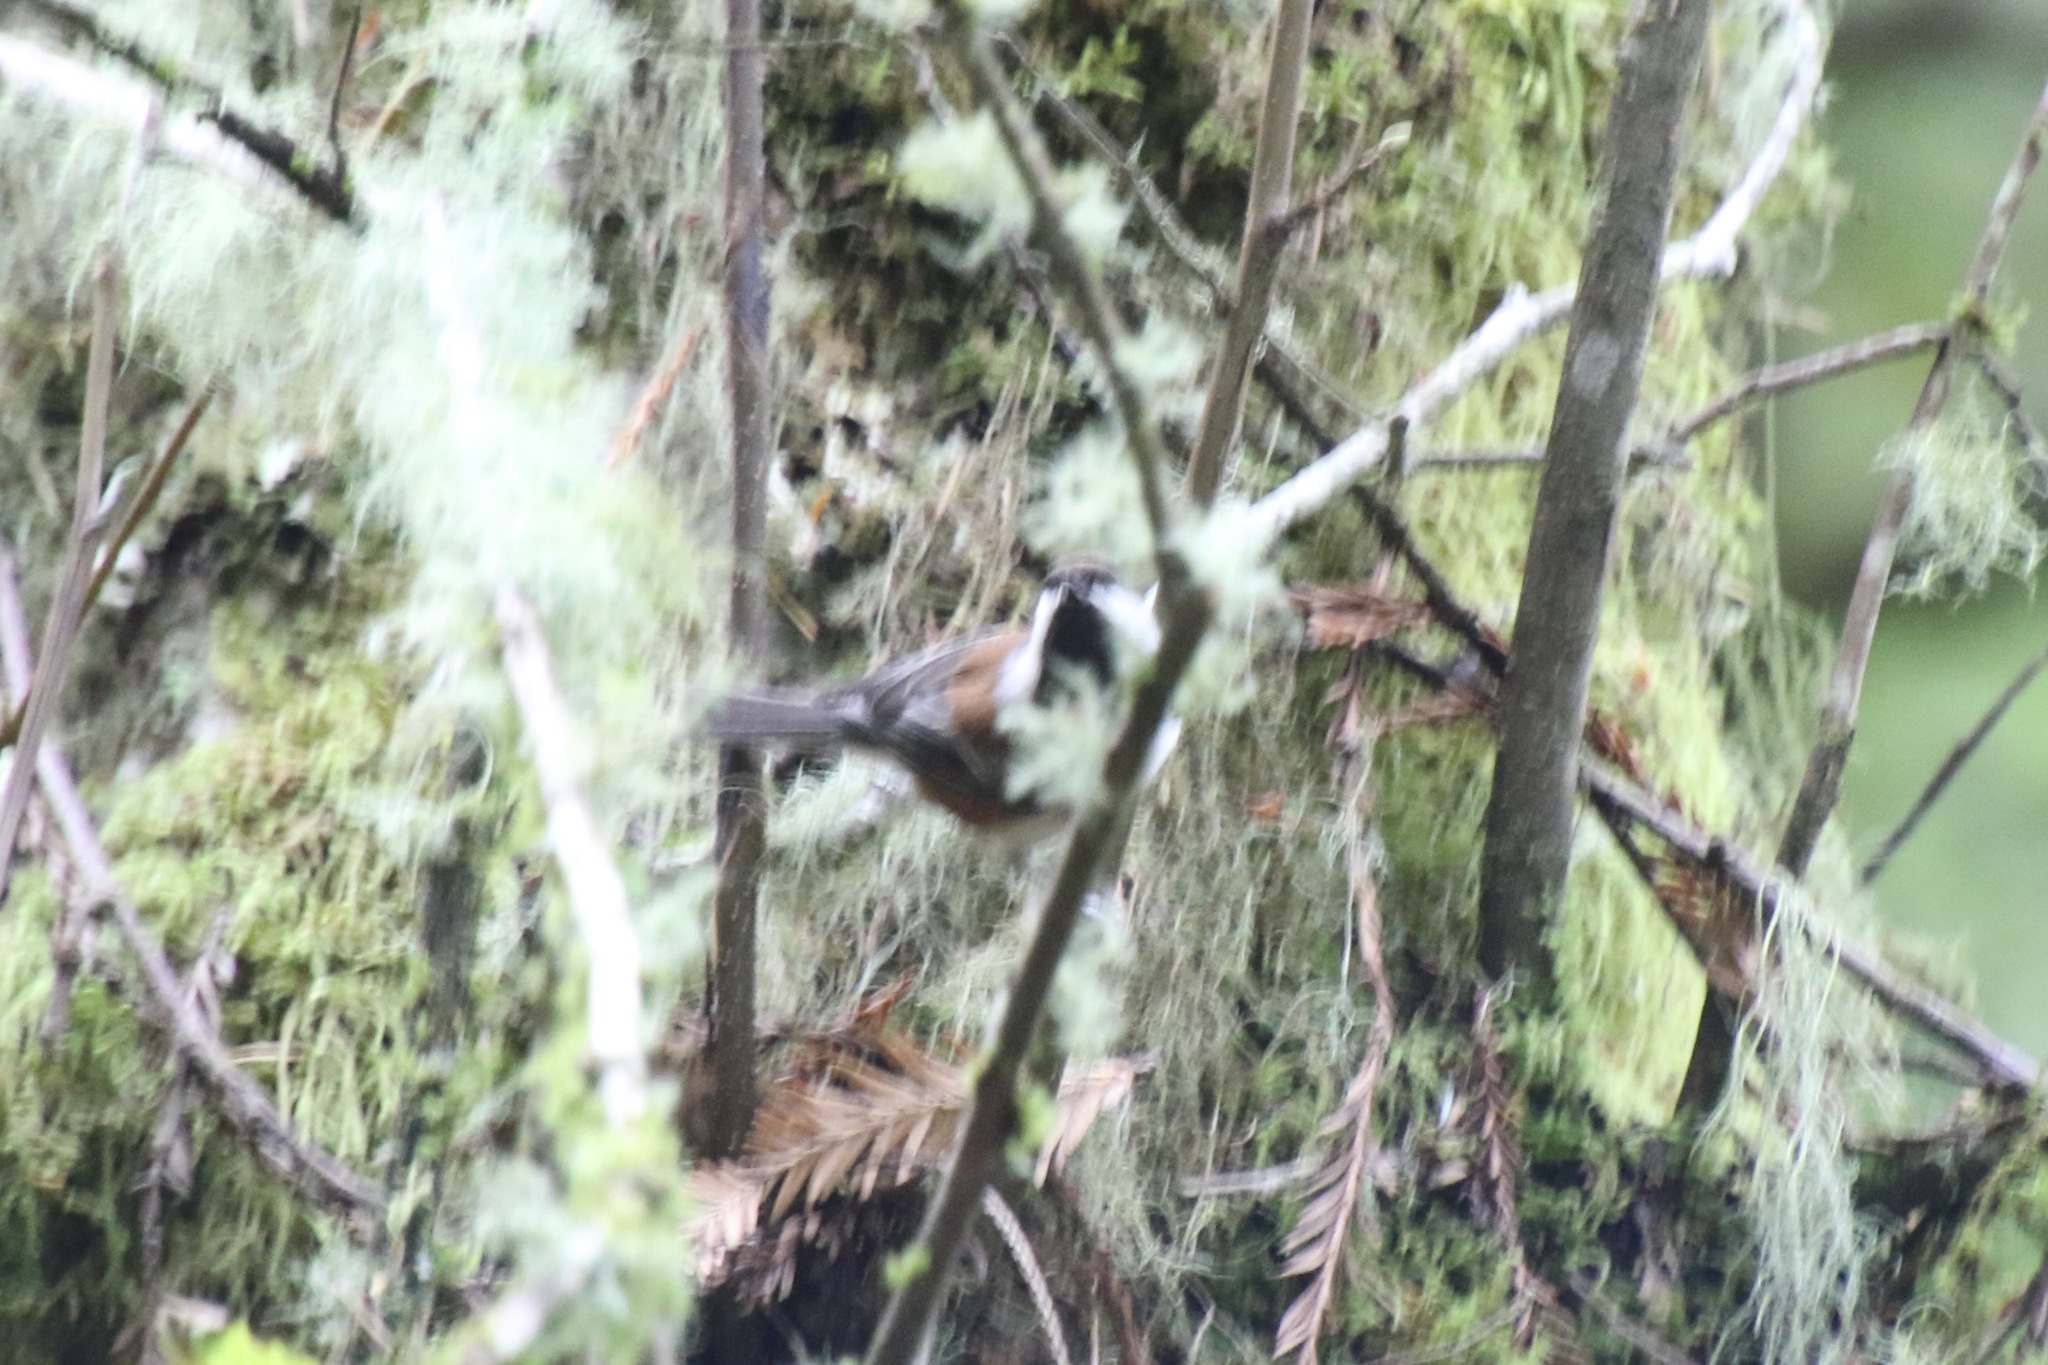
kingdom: Animalia
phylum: Chordata
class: Aves
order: Passeriformes
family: Paridae
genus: Poecile
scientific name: Poecile rufescens
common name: Chestnut-backed chickadee
